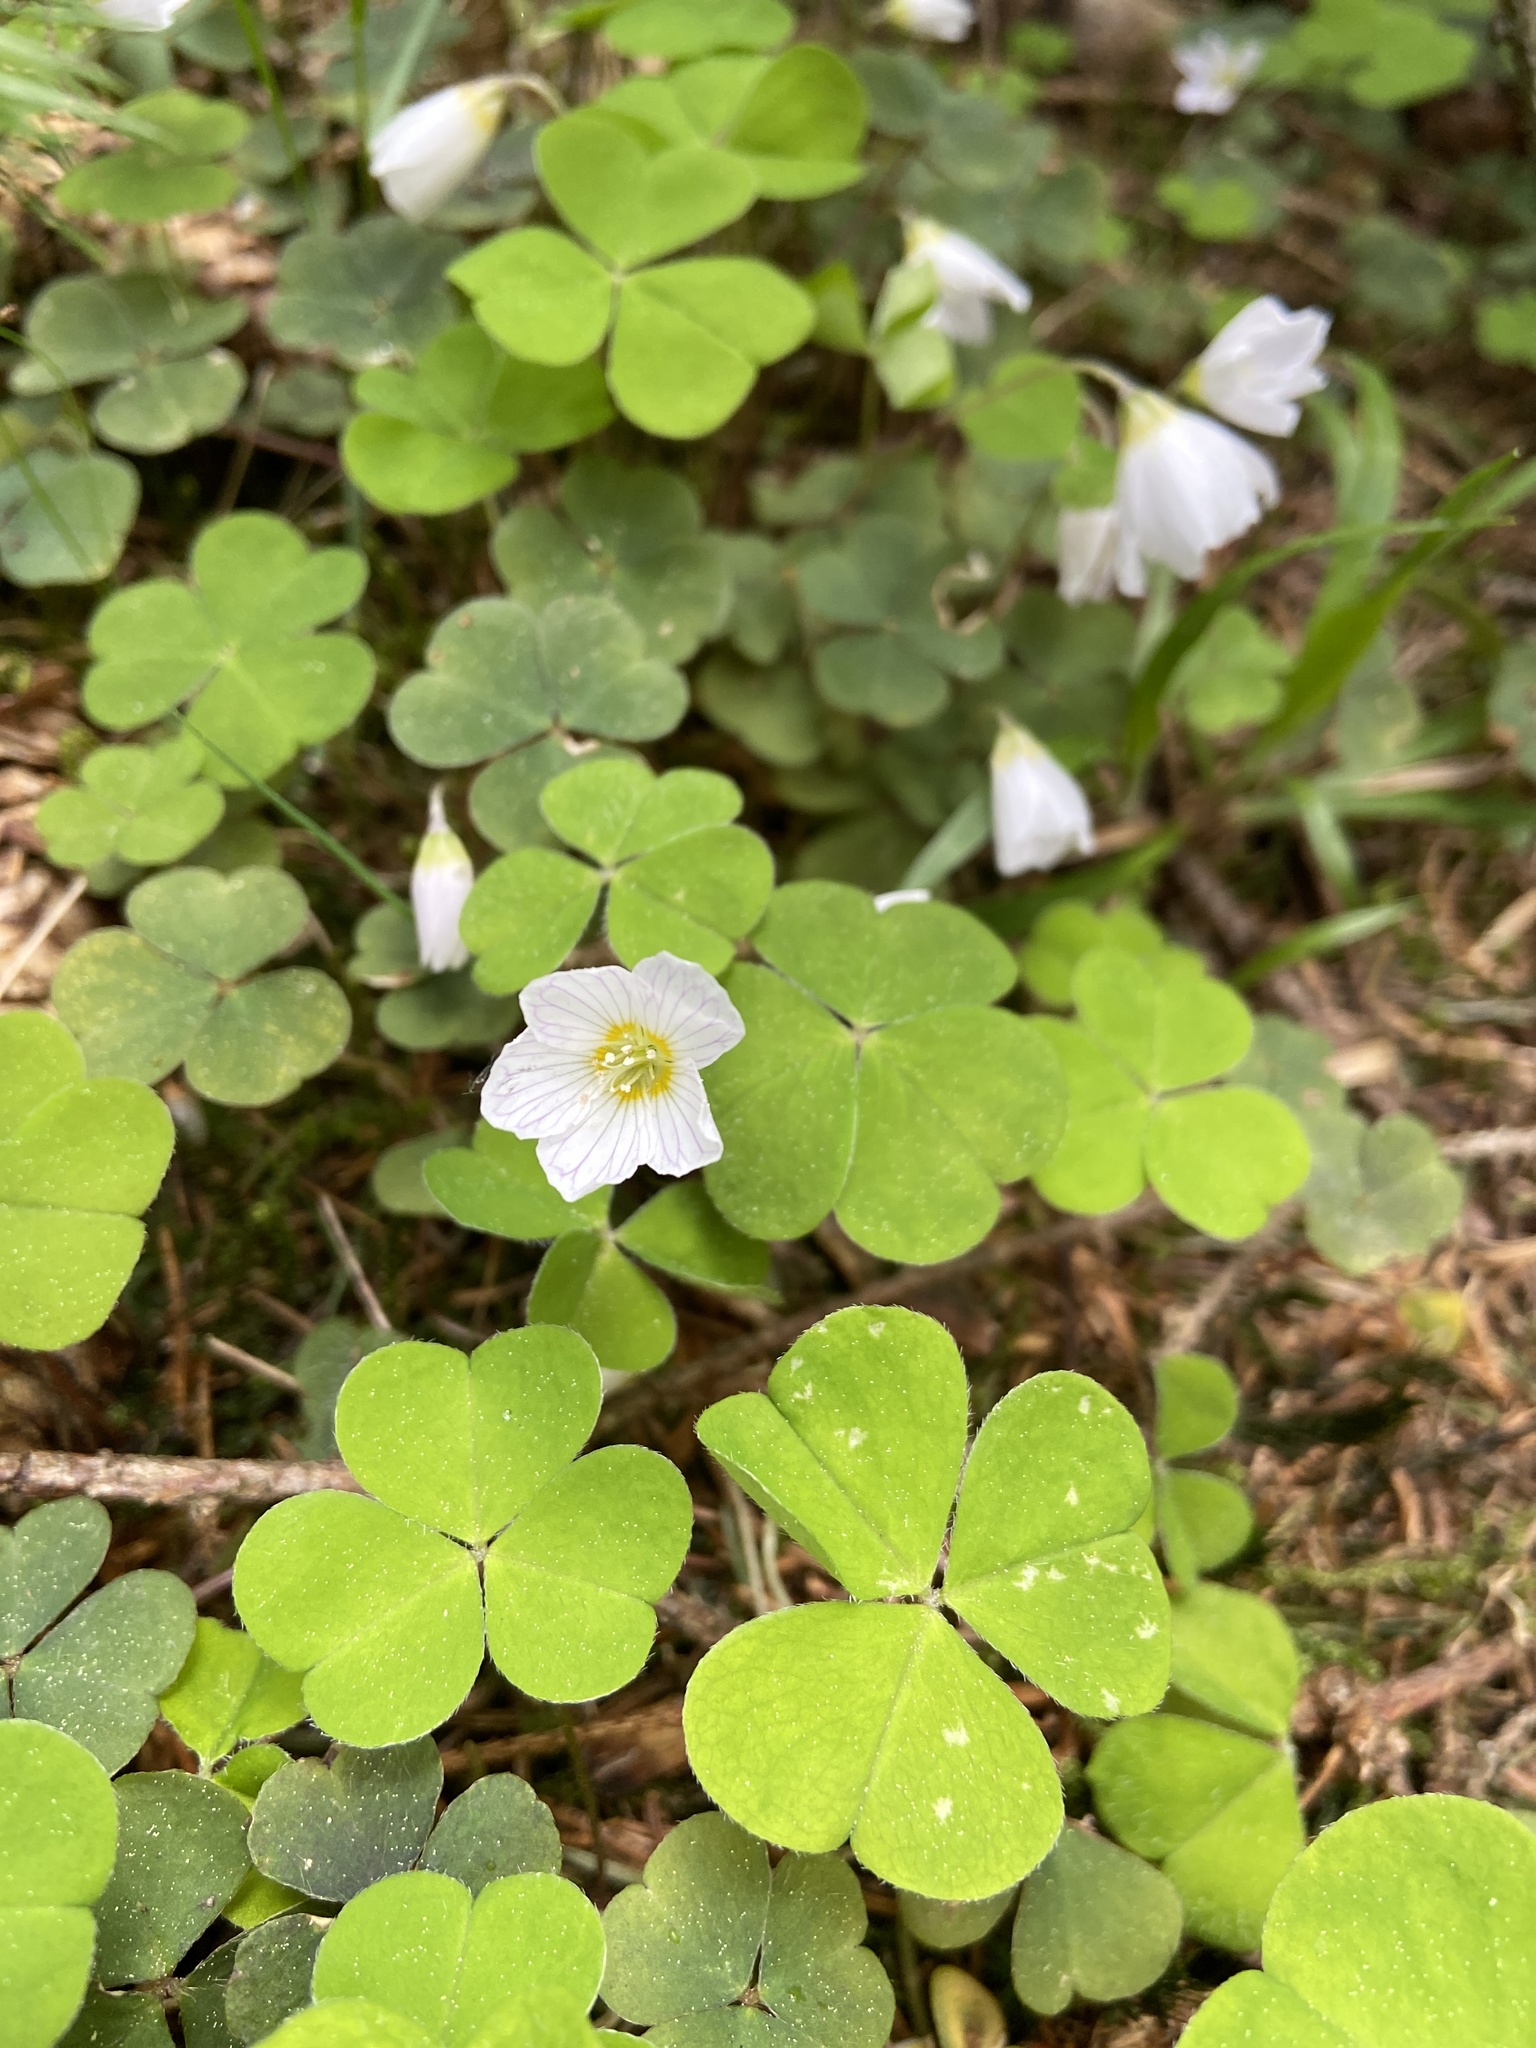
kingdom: Plantae
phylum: Tracheophyta
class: Magnoliopsida
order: Oxalidales
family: Oxalidaceae
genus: Oxalis
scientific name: Oxalis acetosella
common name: Wood-sorrel
